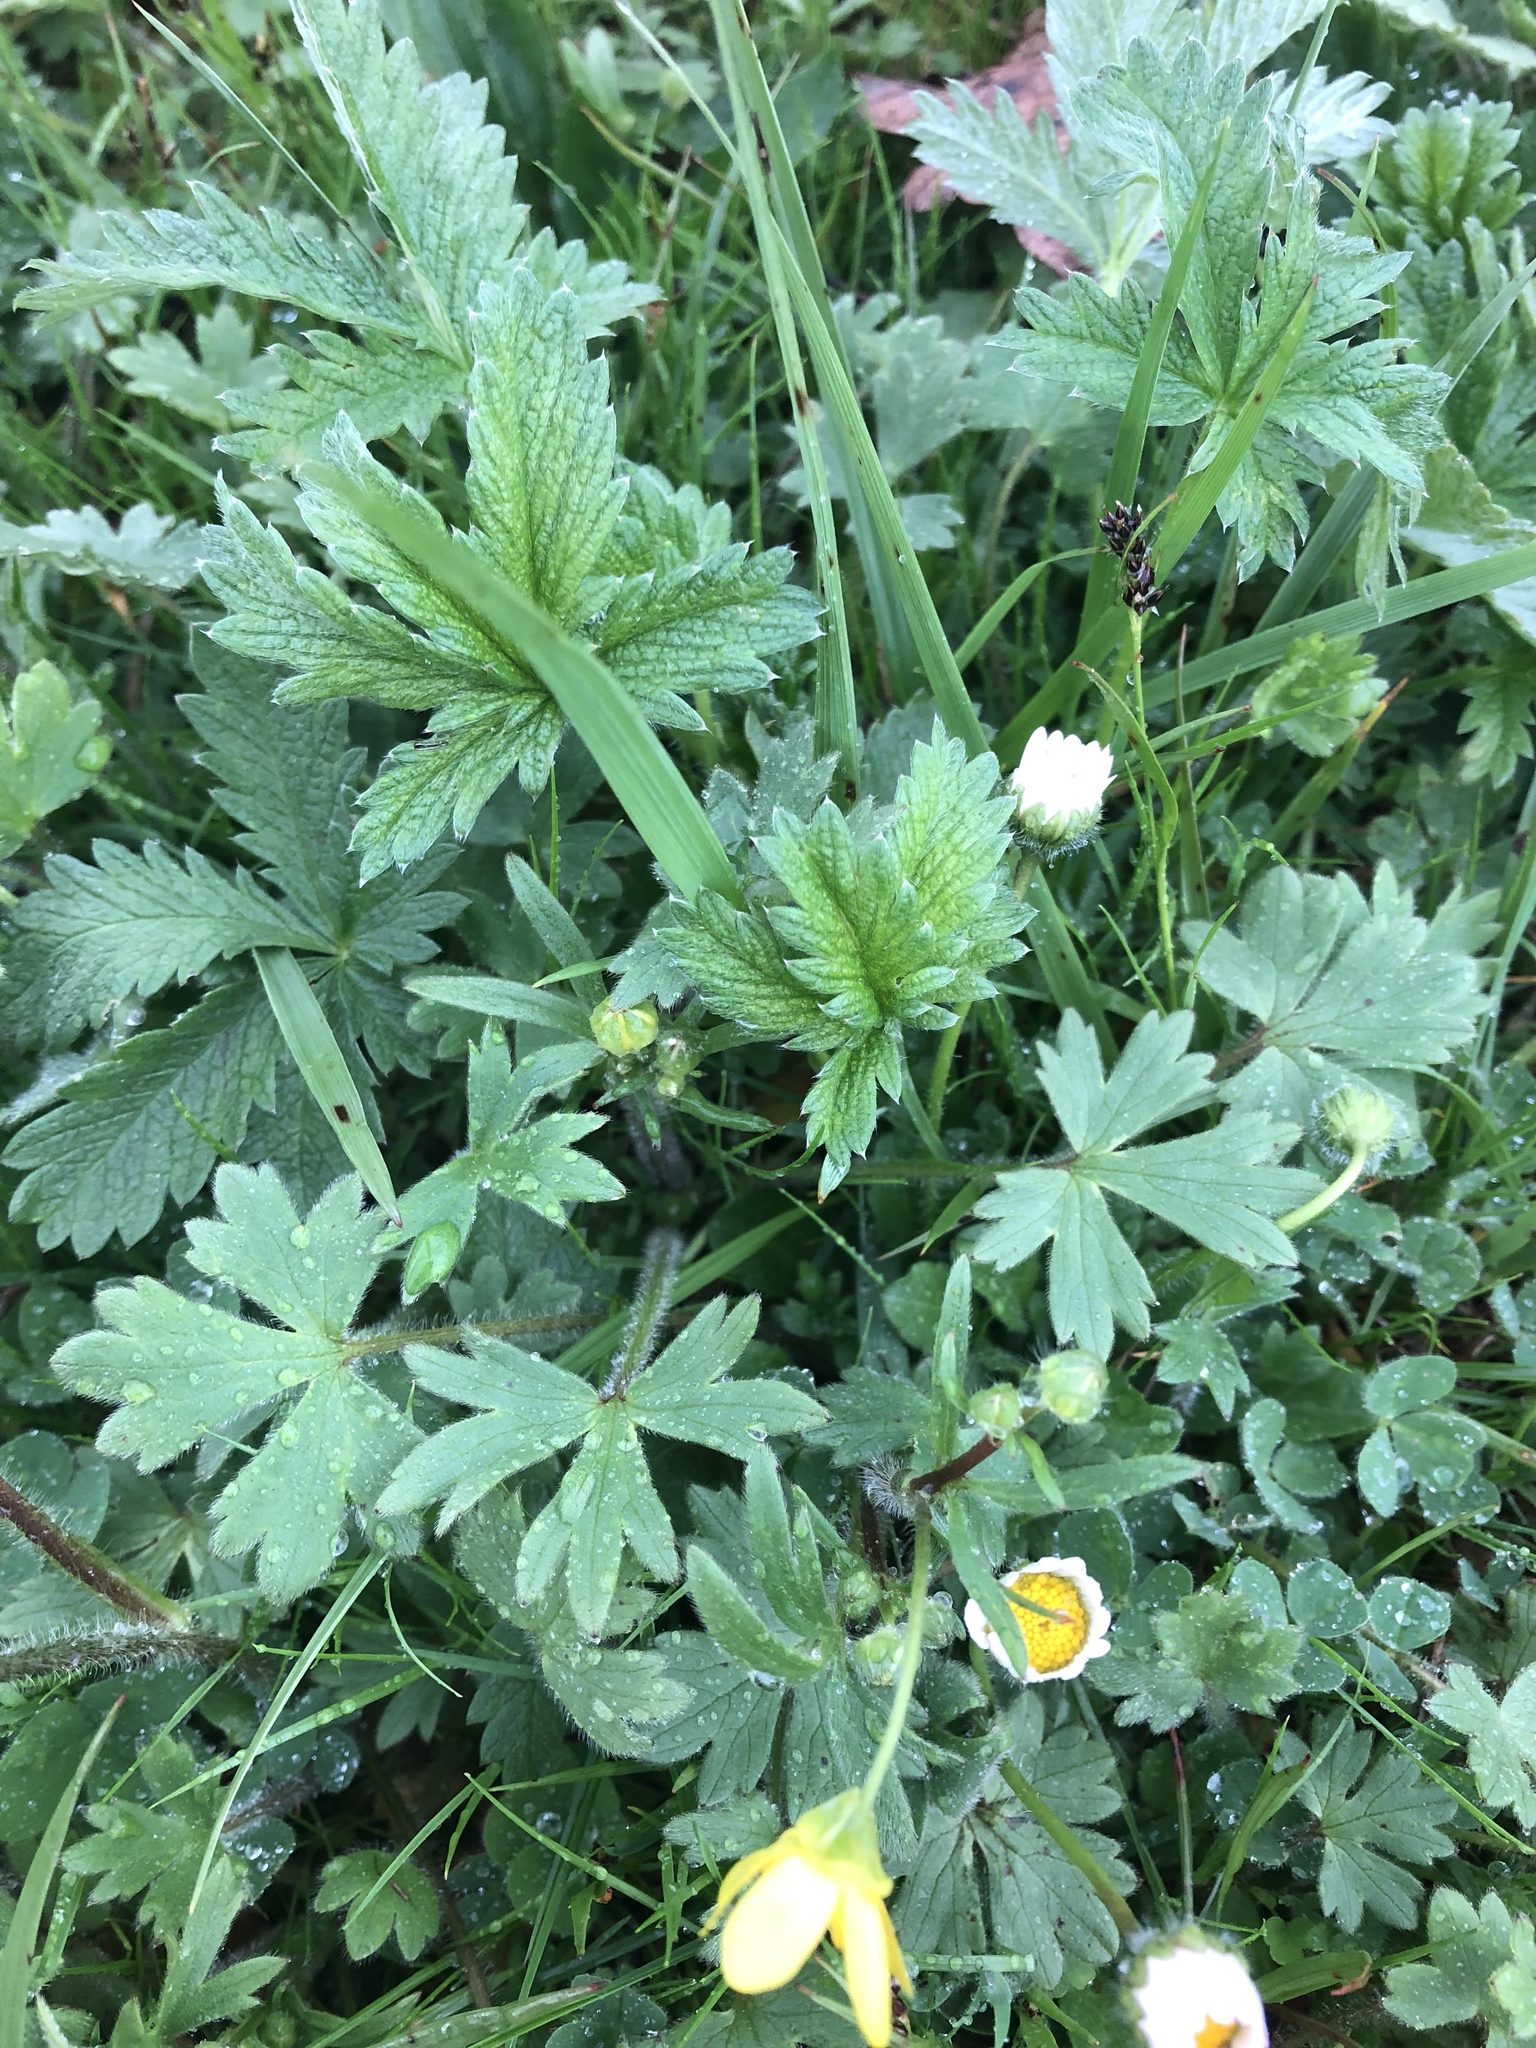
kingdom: Plantae
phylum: Tracheophyta
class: Magnoliopsida
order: Ranunculales
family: Ranunculaceae
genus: Ranunculus
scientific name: Ranunculus occidentalis
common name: Western buttercup
